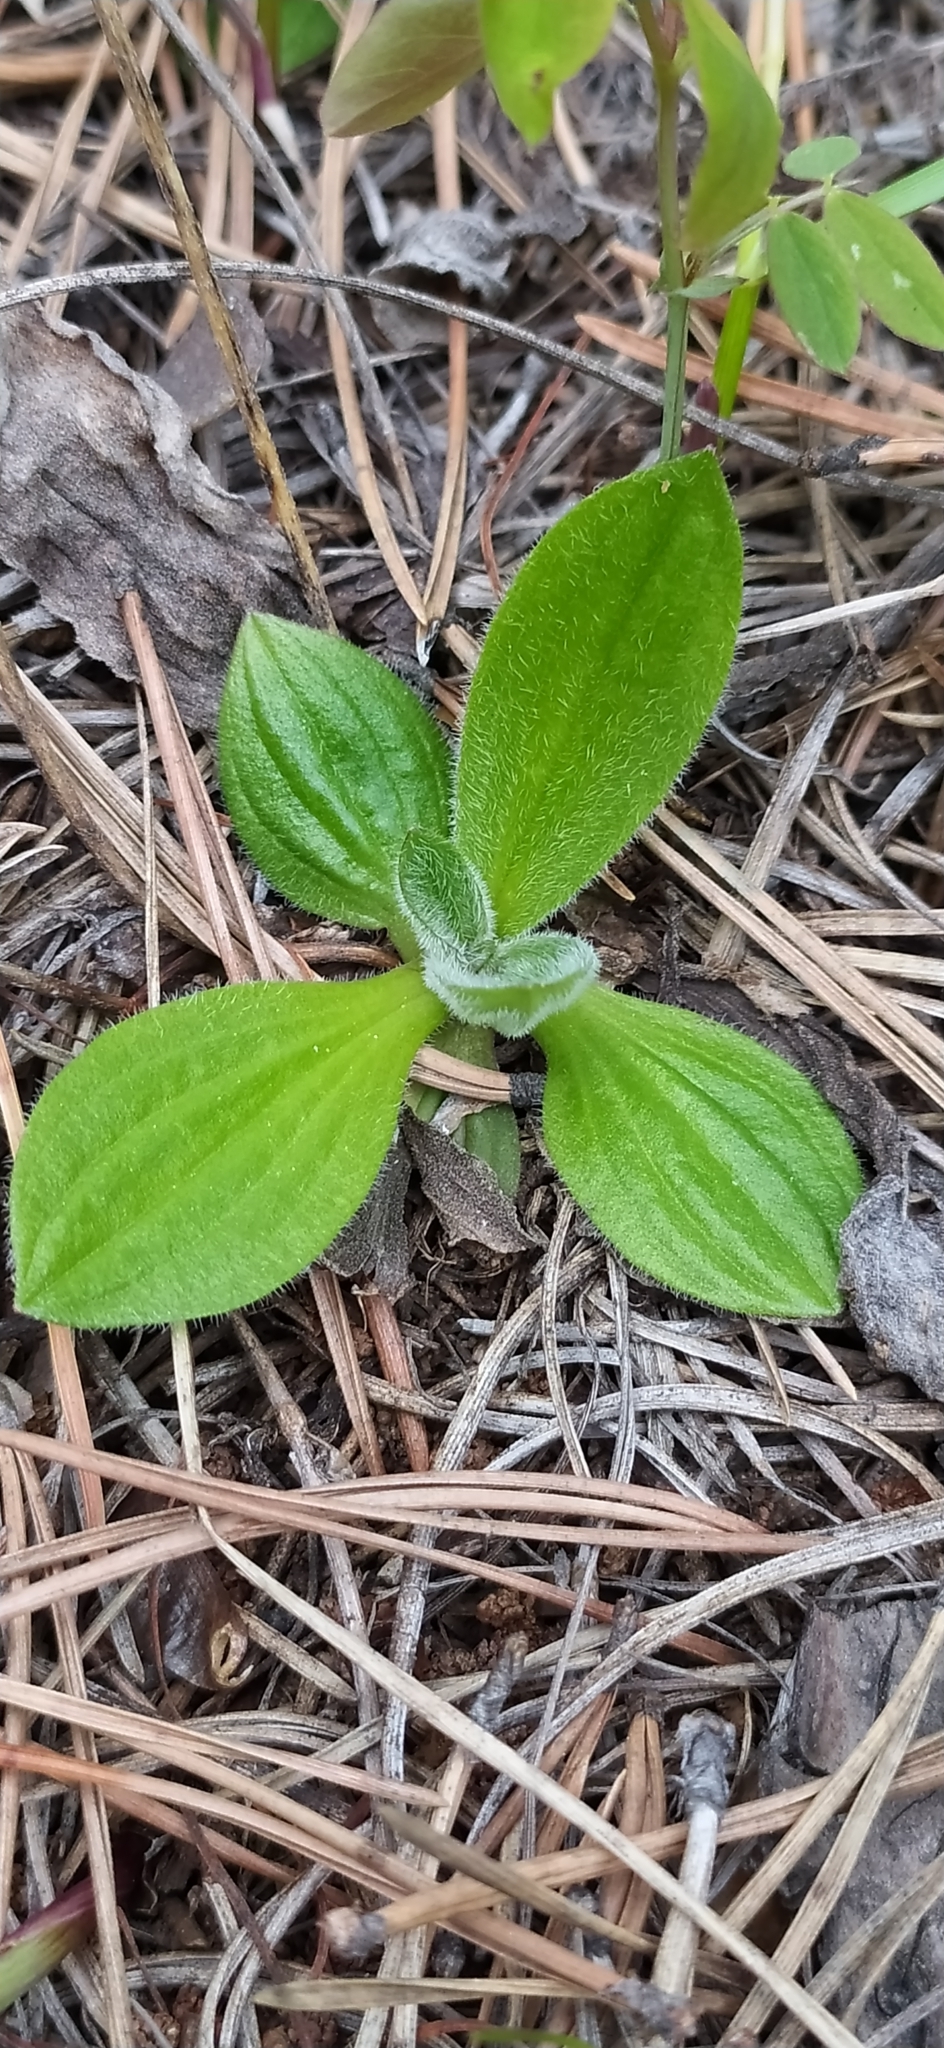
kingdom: Plantae
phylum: Tracheophyta
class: Magnoliopsida
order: Lamiales
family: Plantaginaceae
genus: Plantago
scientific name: Plantago media
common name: Hoary plantain
